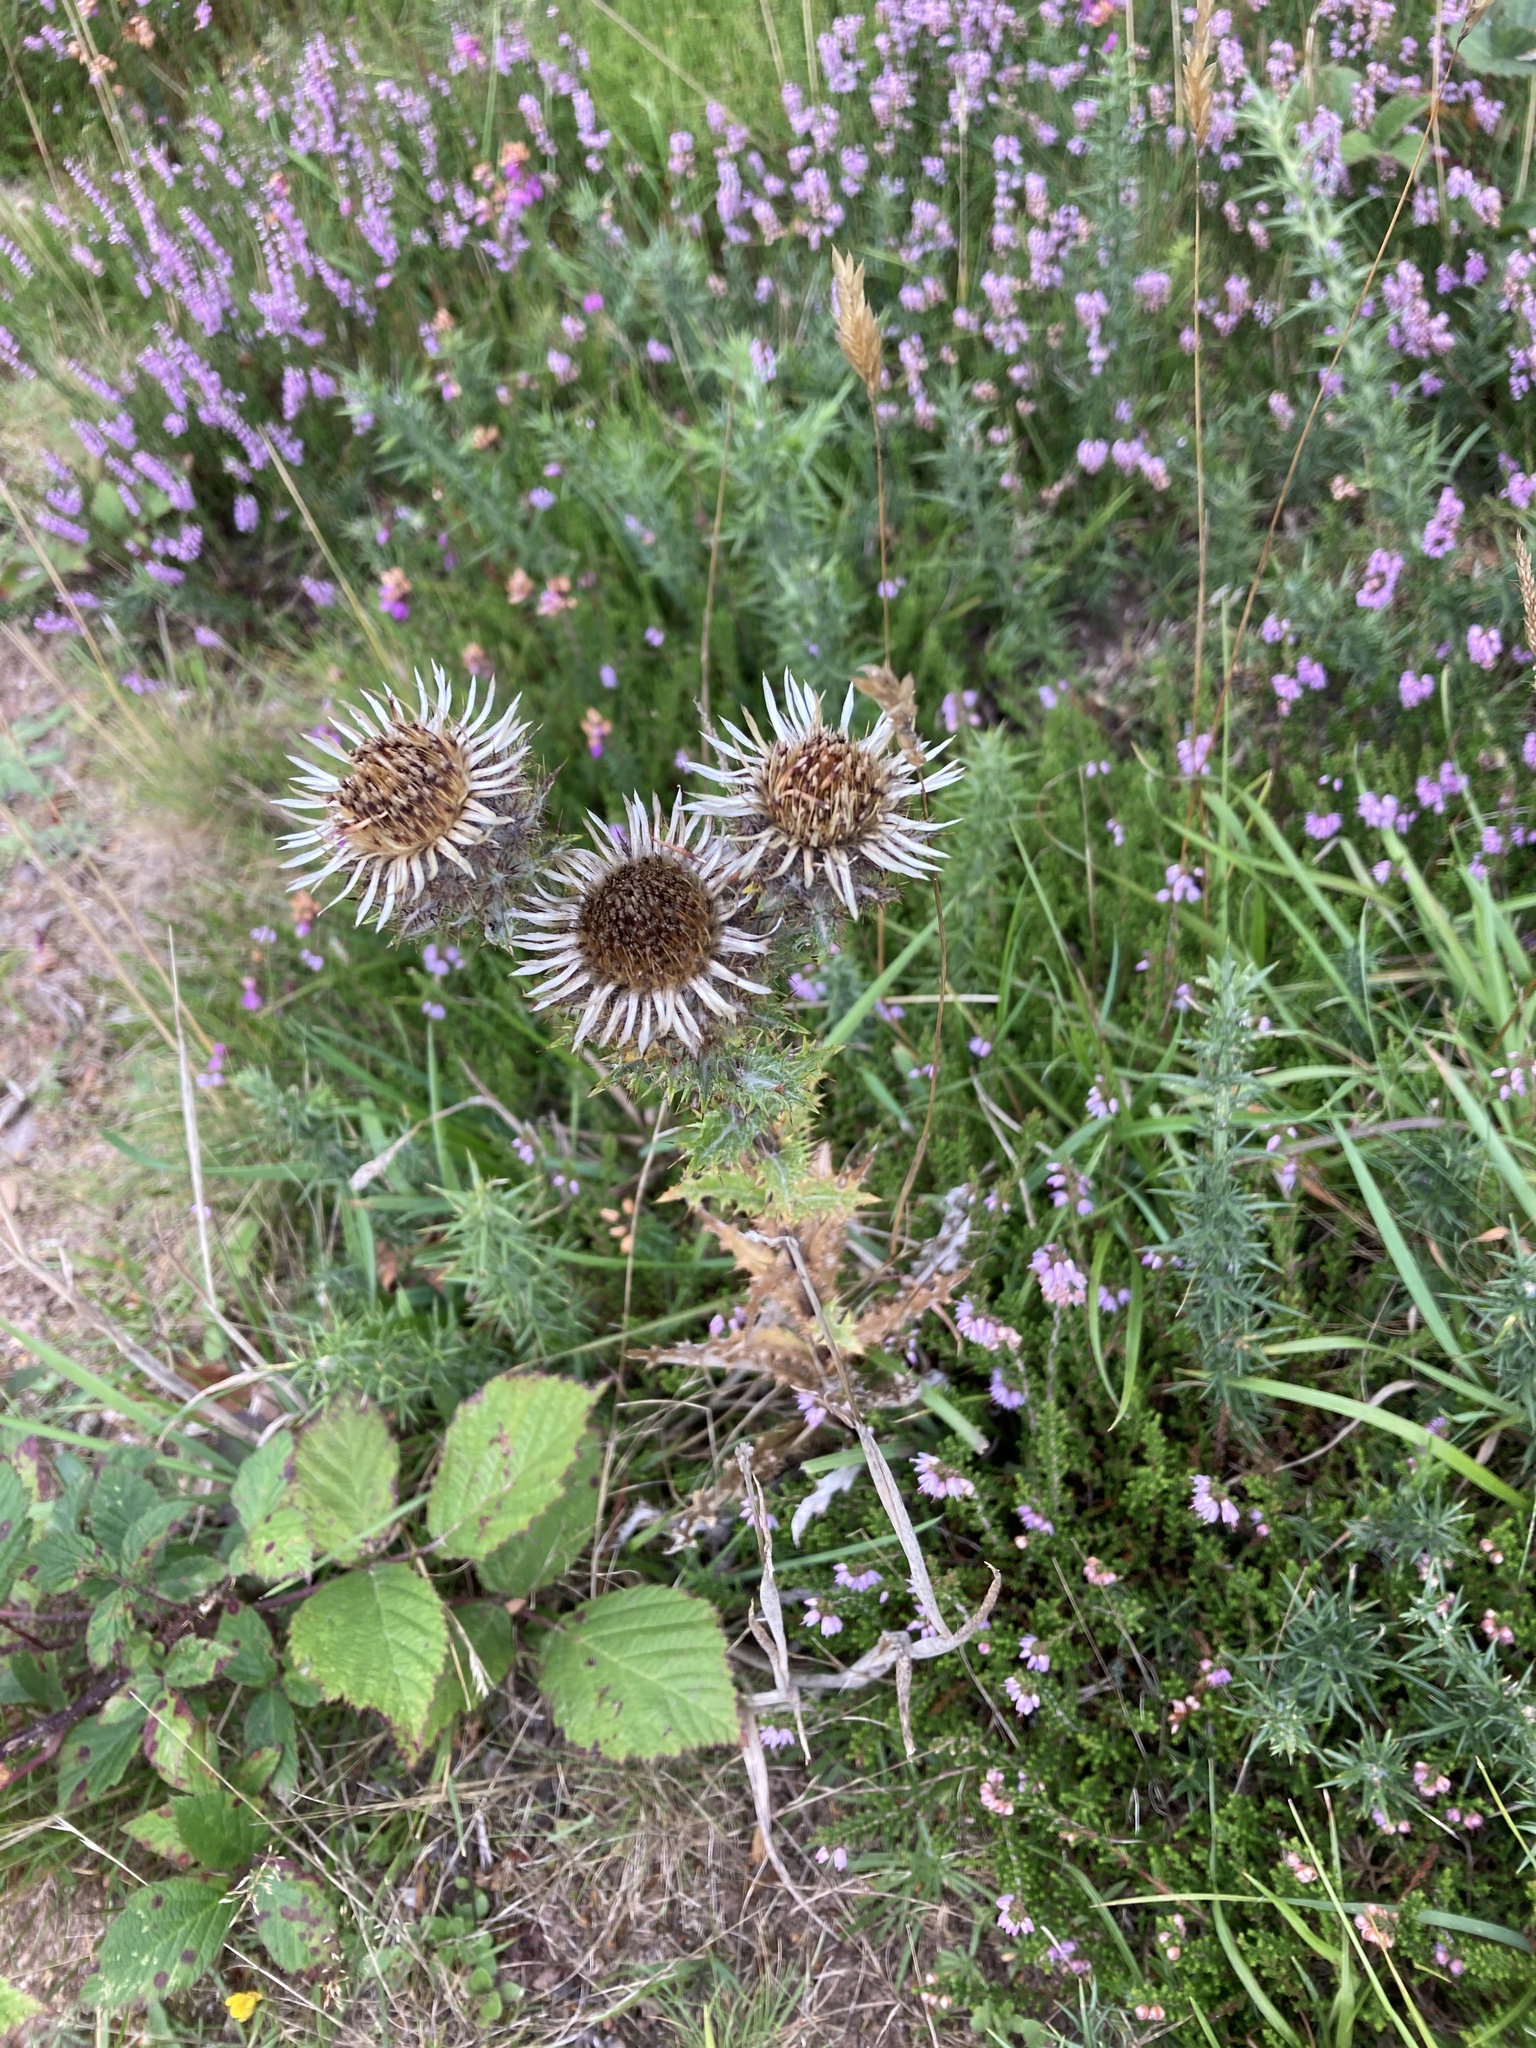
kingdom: Plantae
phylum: Tracheophyta
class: Magnoliopsida
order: Asterales
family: Asteraceae
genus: Carlina
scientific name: Carlina vulgaris
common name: Carline thistle
